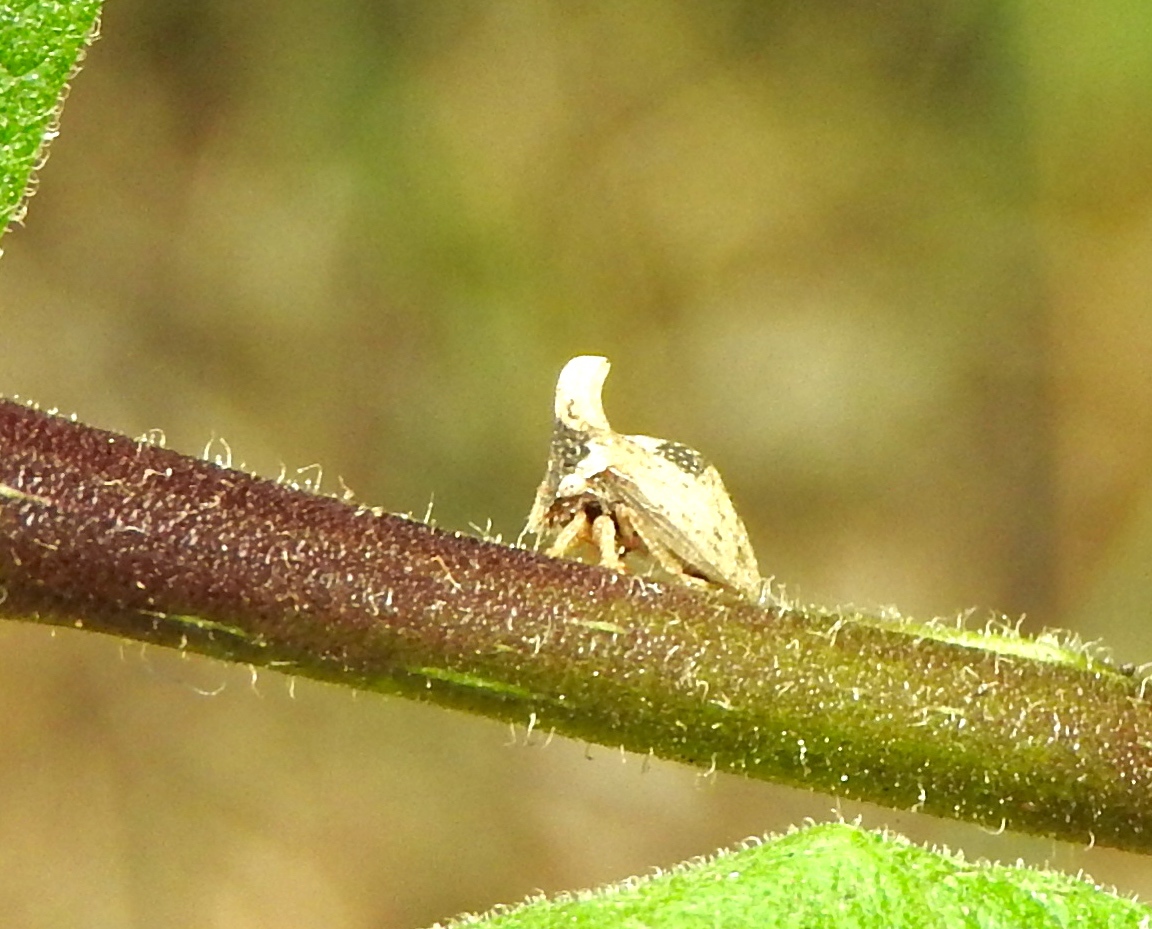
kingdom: Animalia
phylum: Arthropoda
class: Insecta
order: Hemiptera
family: Membracidae
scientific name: Membracidae
